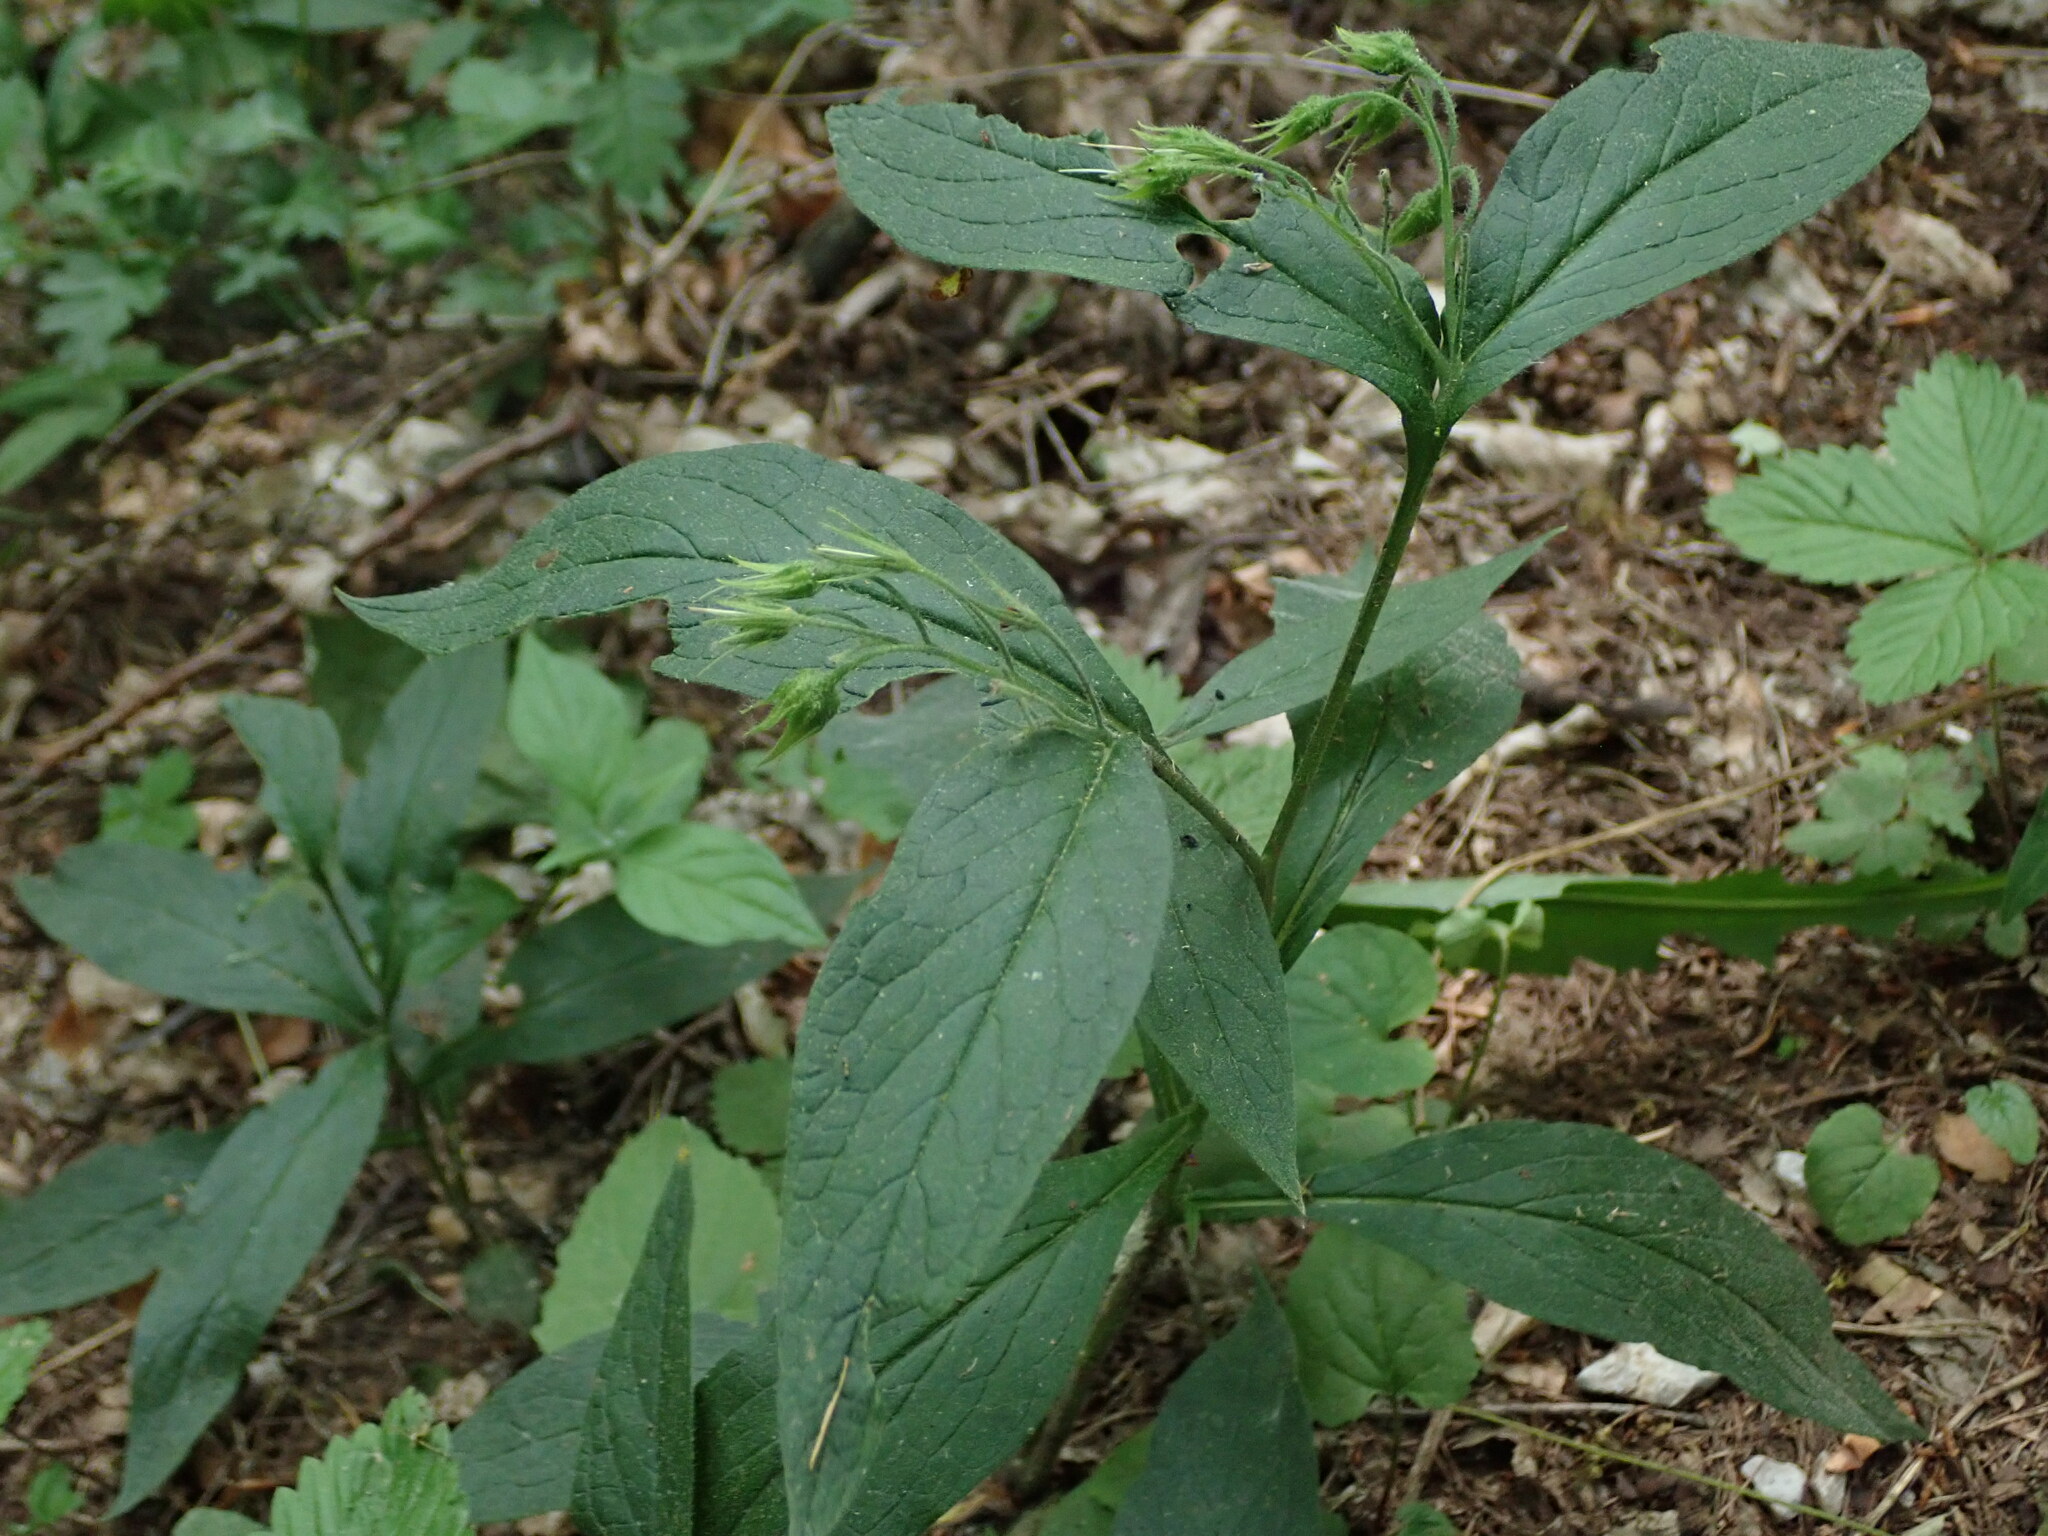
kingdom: Plantae
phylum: Tracheophyta
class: Magnoliopsida
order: Boraginales
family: Boraginaceae
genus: Symphytum
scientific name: Symphytum tuberosum
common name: Tuberous comfrey
